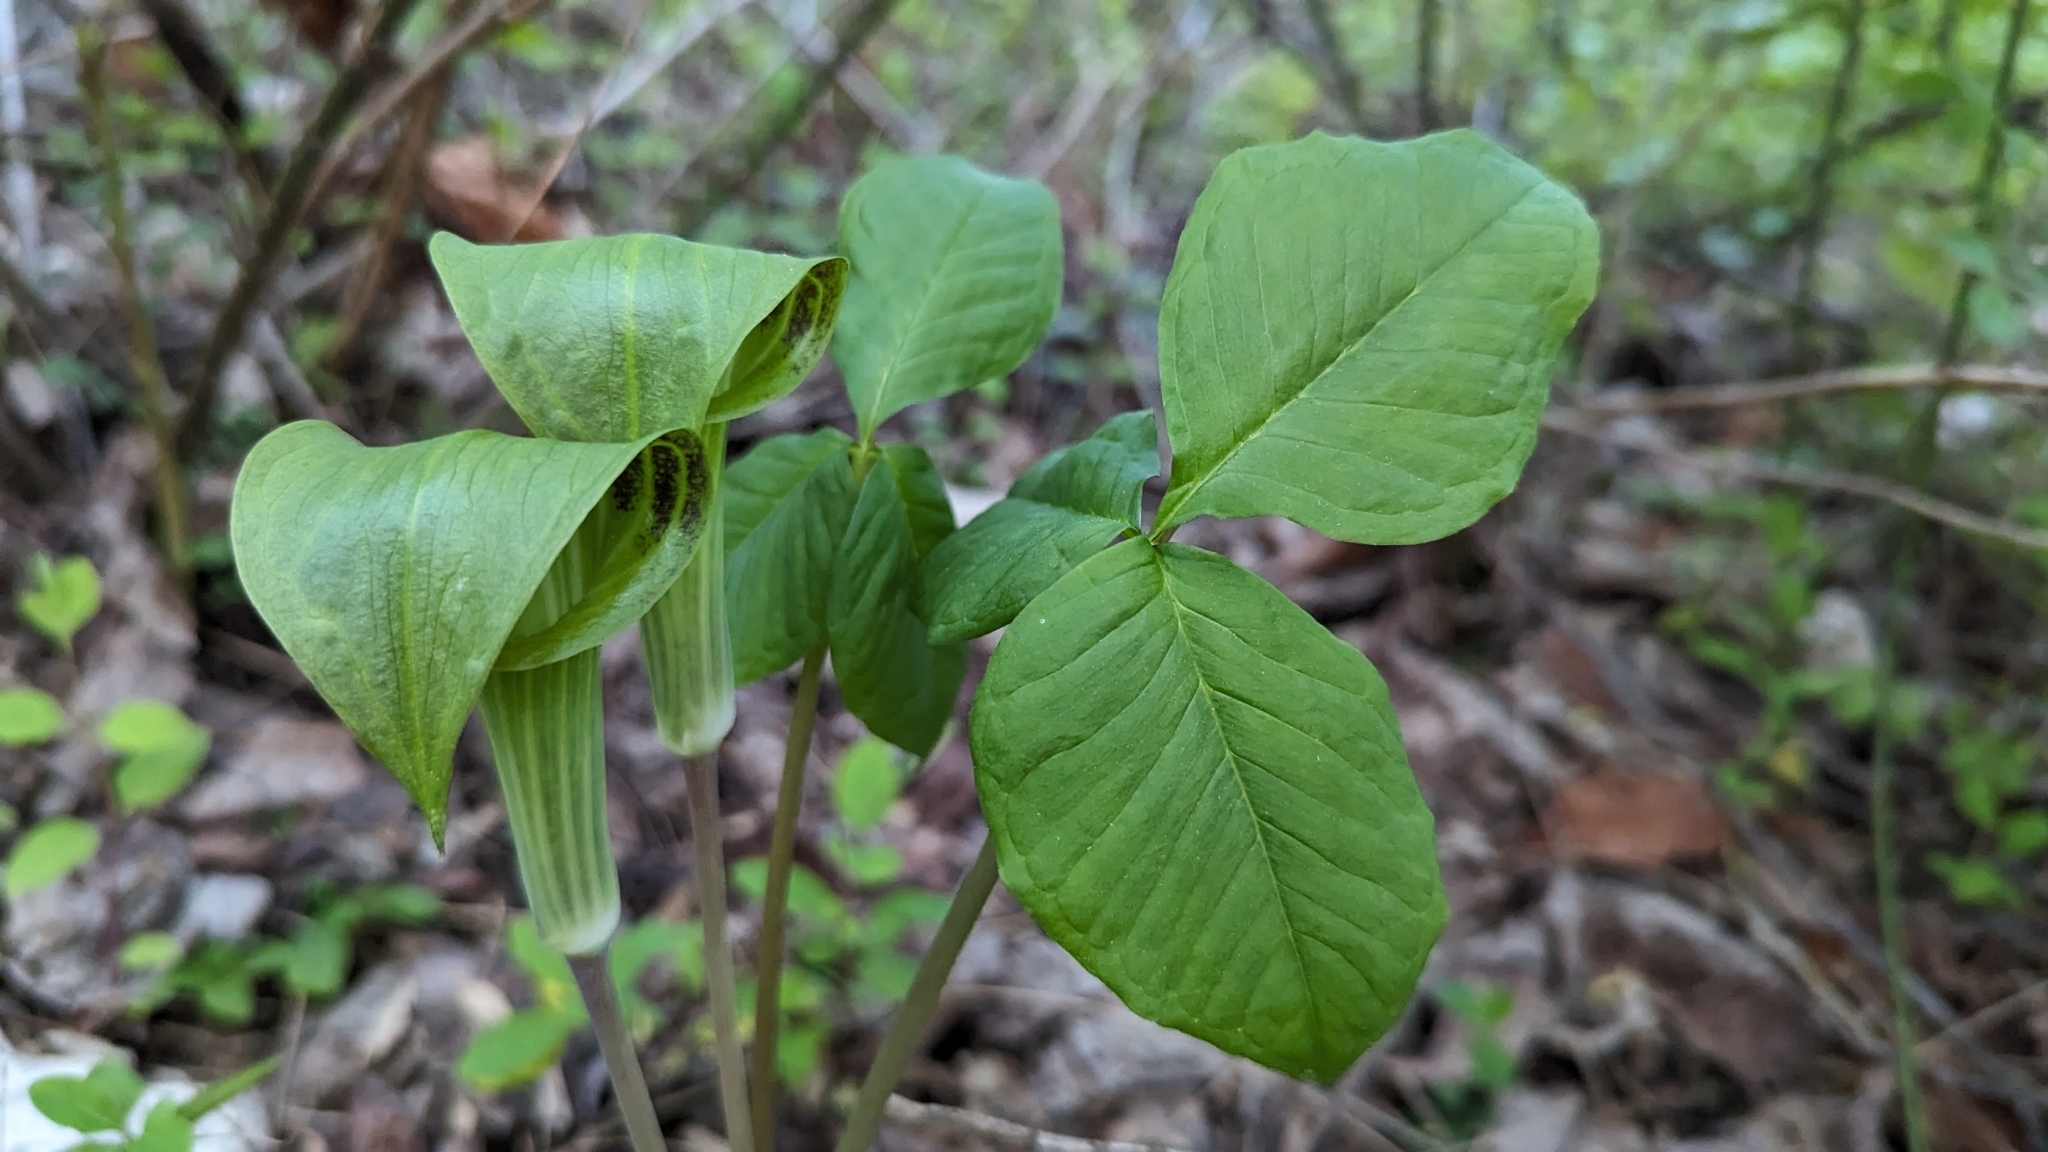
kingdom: Plantae
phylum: Tracheophyta
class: Liliopsida
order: Alismatales
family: Araceae
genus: Arisaema
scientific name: Arisaema triphyllum
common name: Jack-in-the-pulpit
